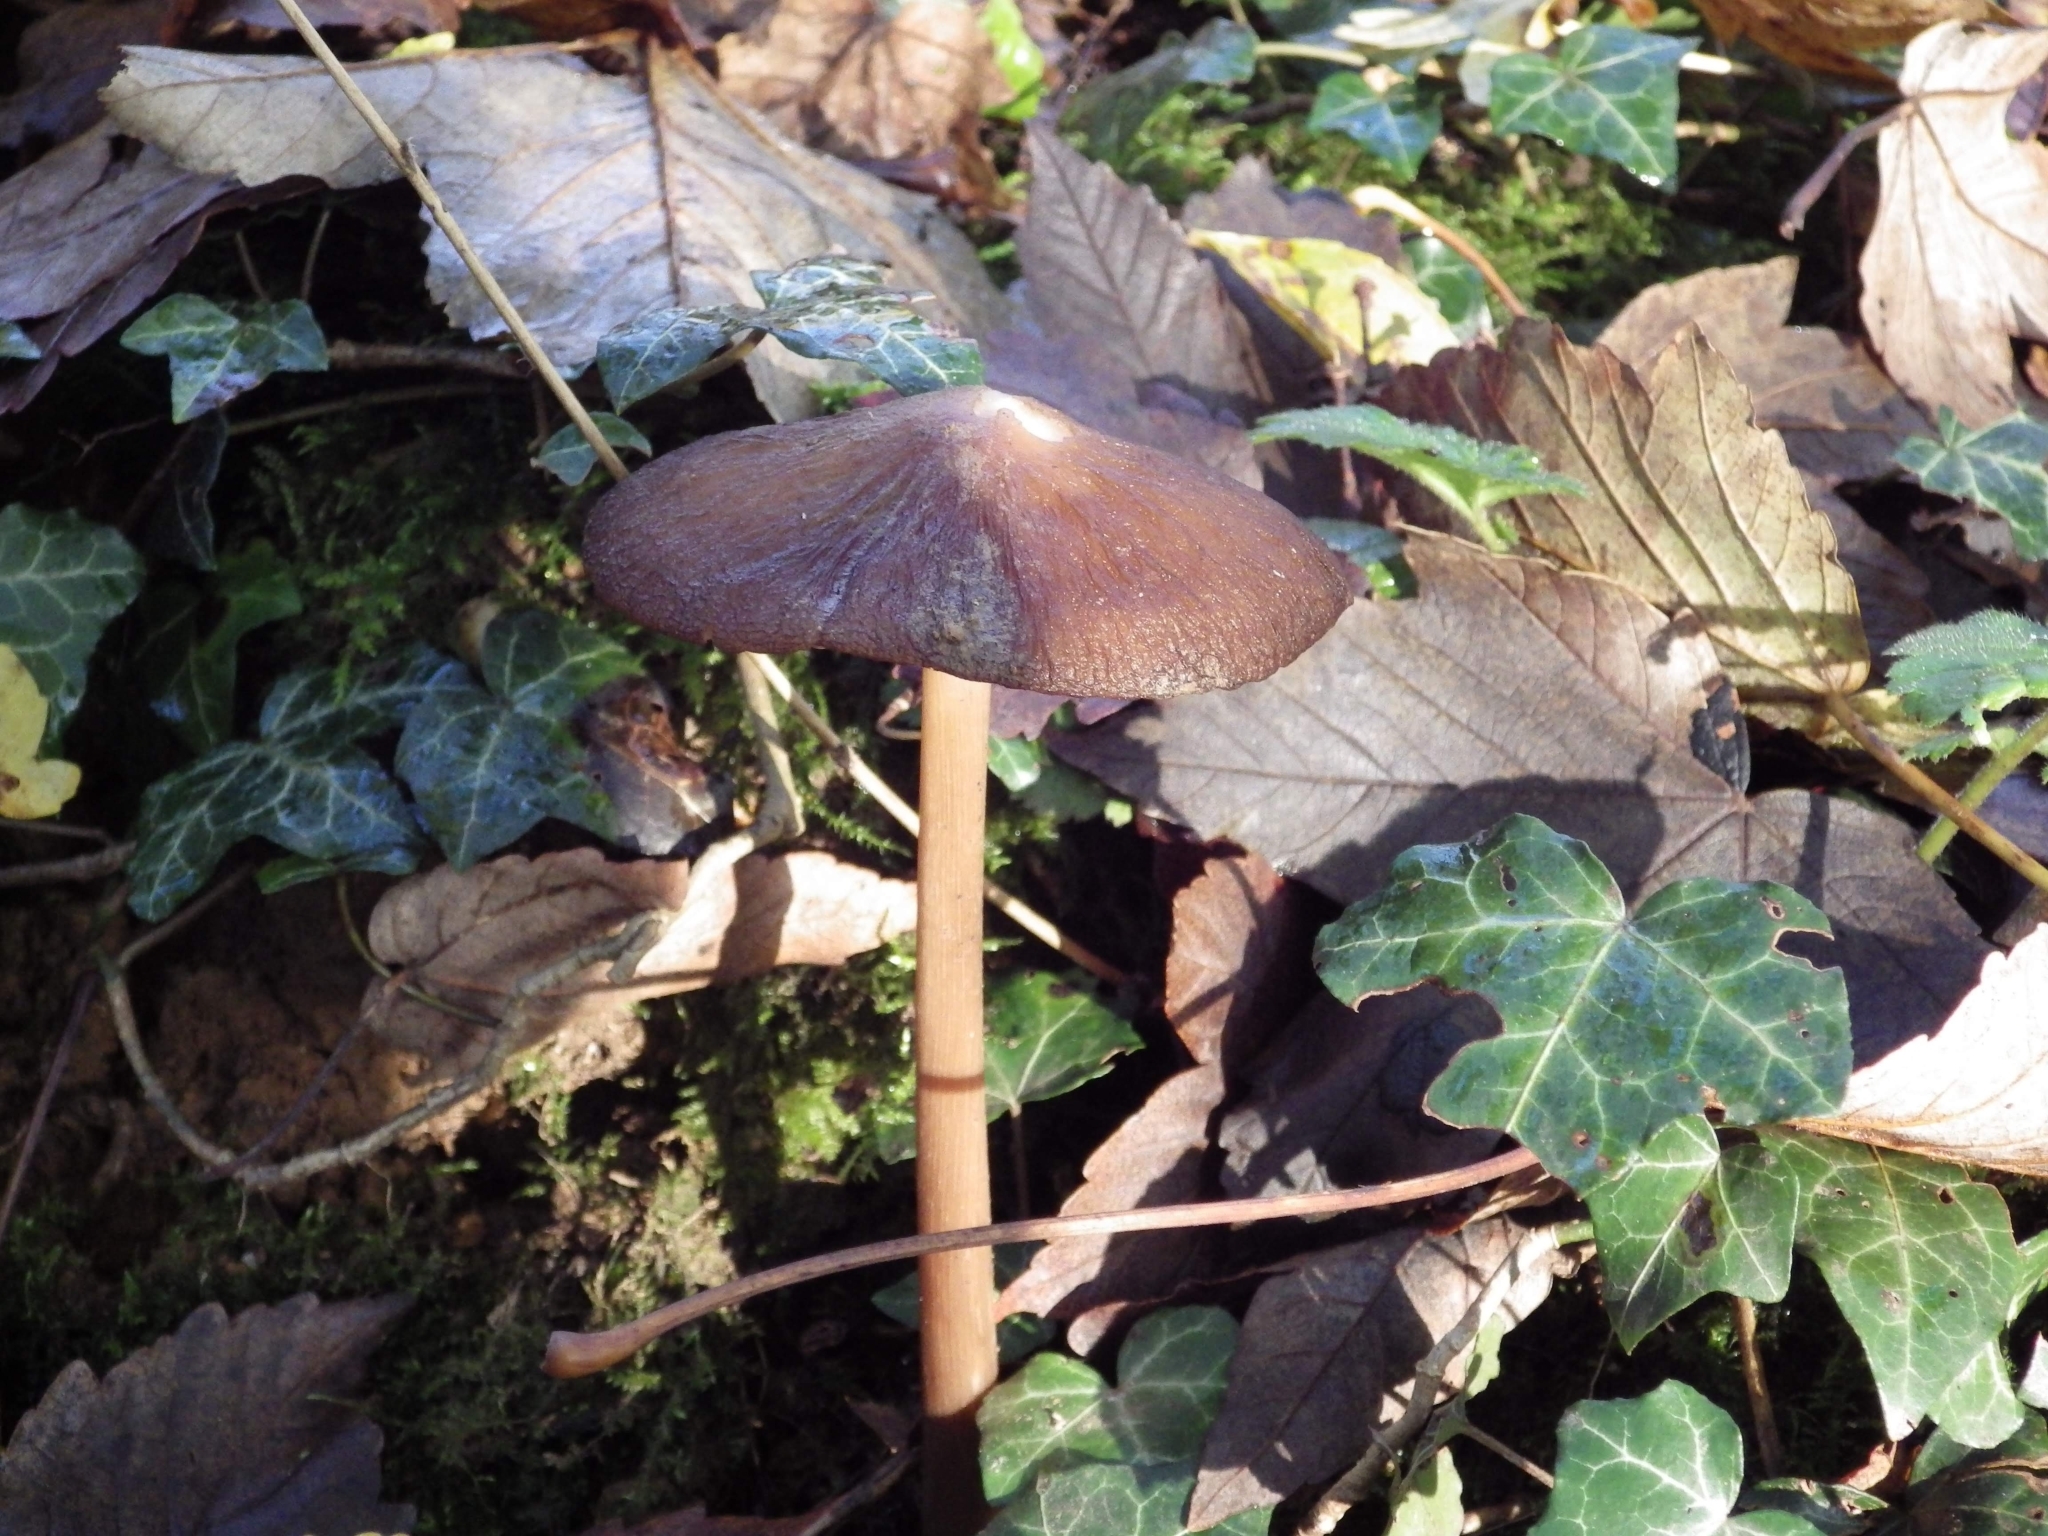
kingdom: Fungi
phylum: Basidiomycota
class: Agaricomycetes
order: Agaricales
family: Physalacriaceae
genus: Hymenopellis
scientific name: Hymenopellis radicata
